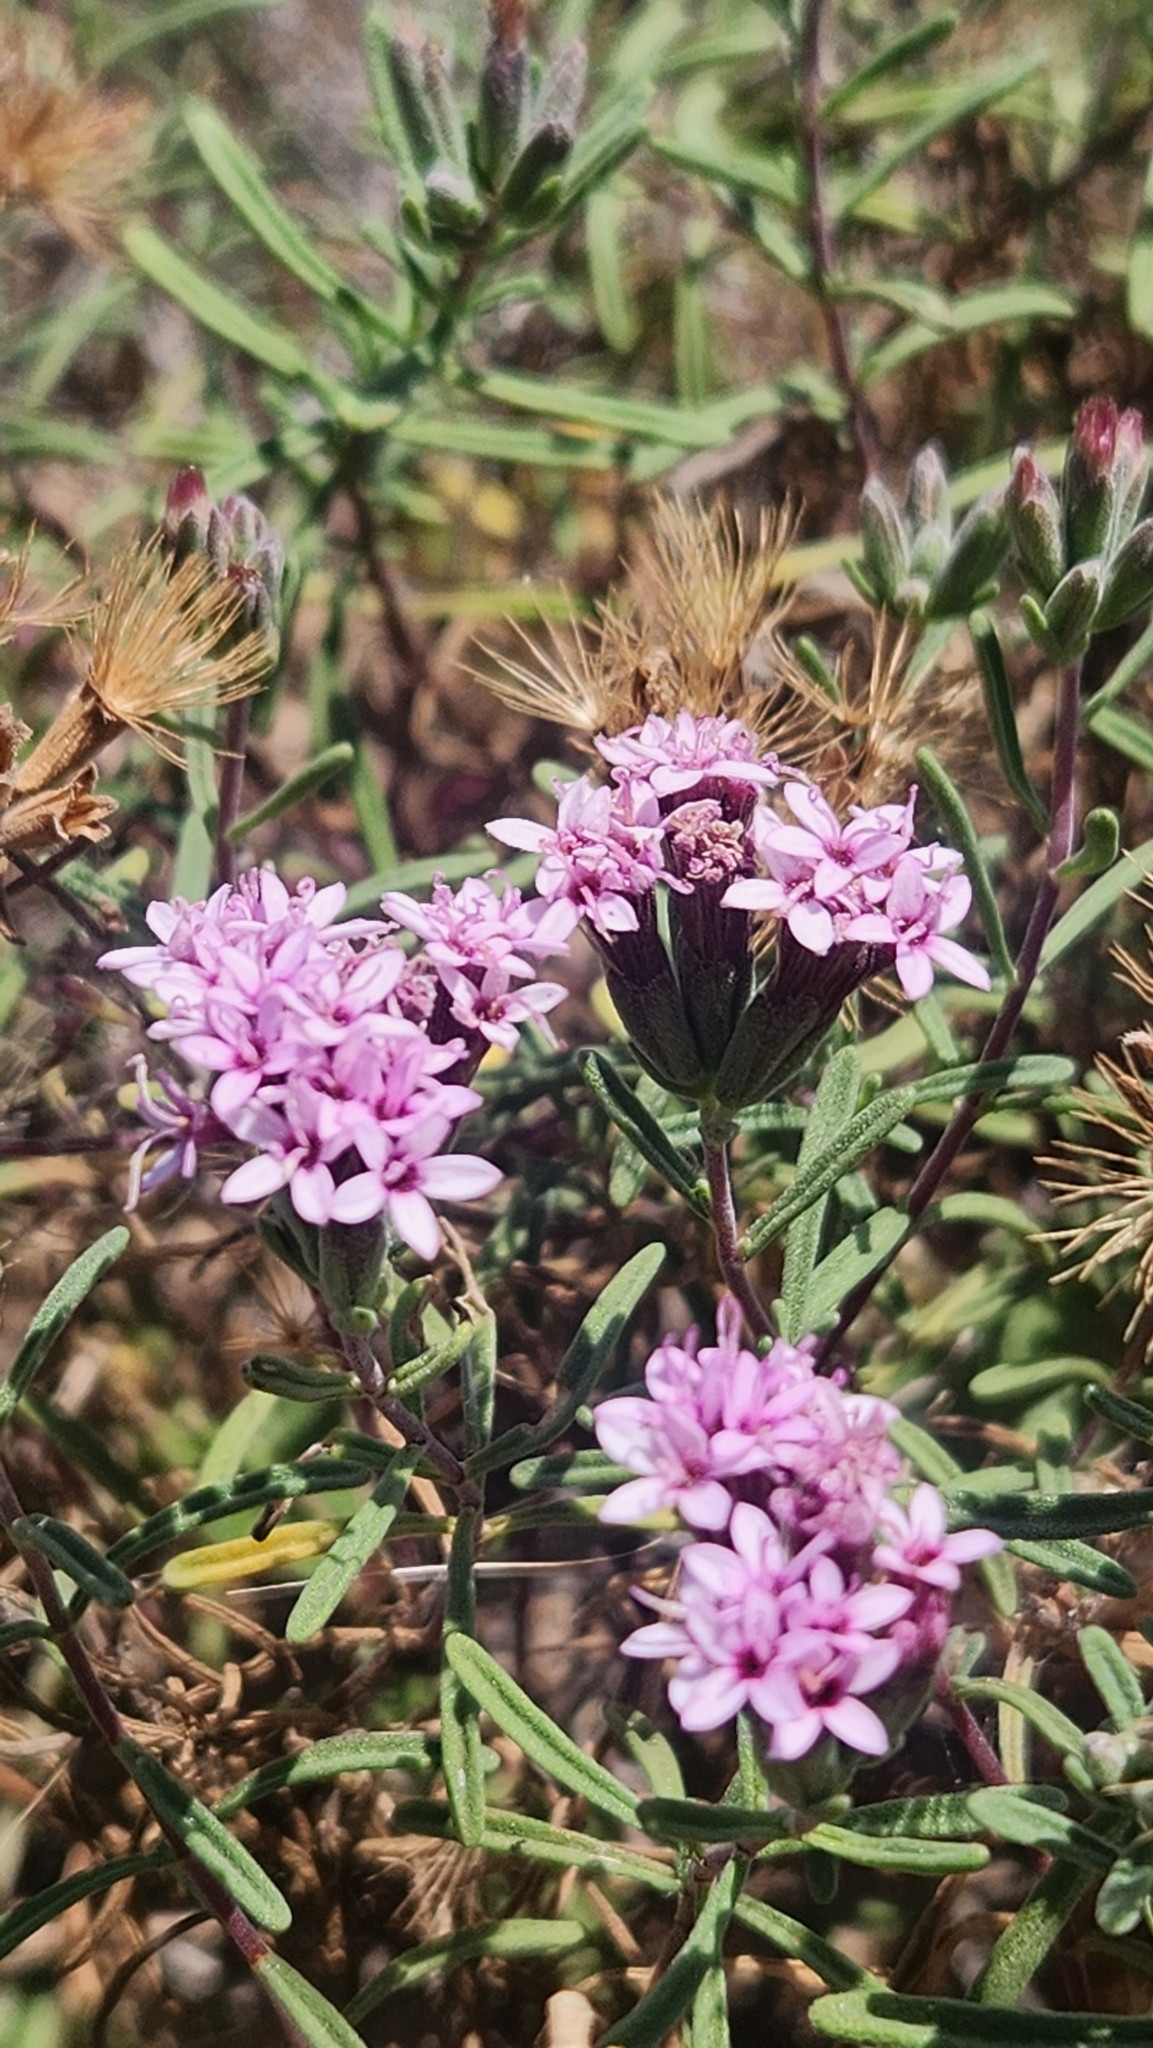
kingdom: Plantae
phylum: Tracheophyta
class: Magnoliopsida
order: Asterales
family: Asteraceae
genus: Stevia
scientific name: Stevia satureifolia
